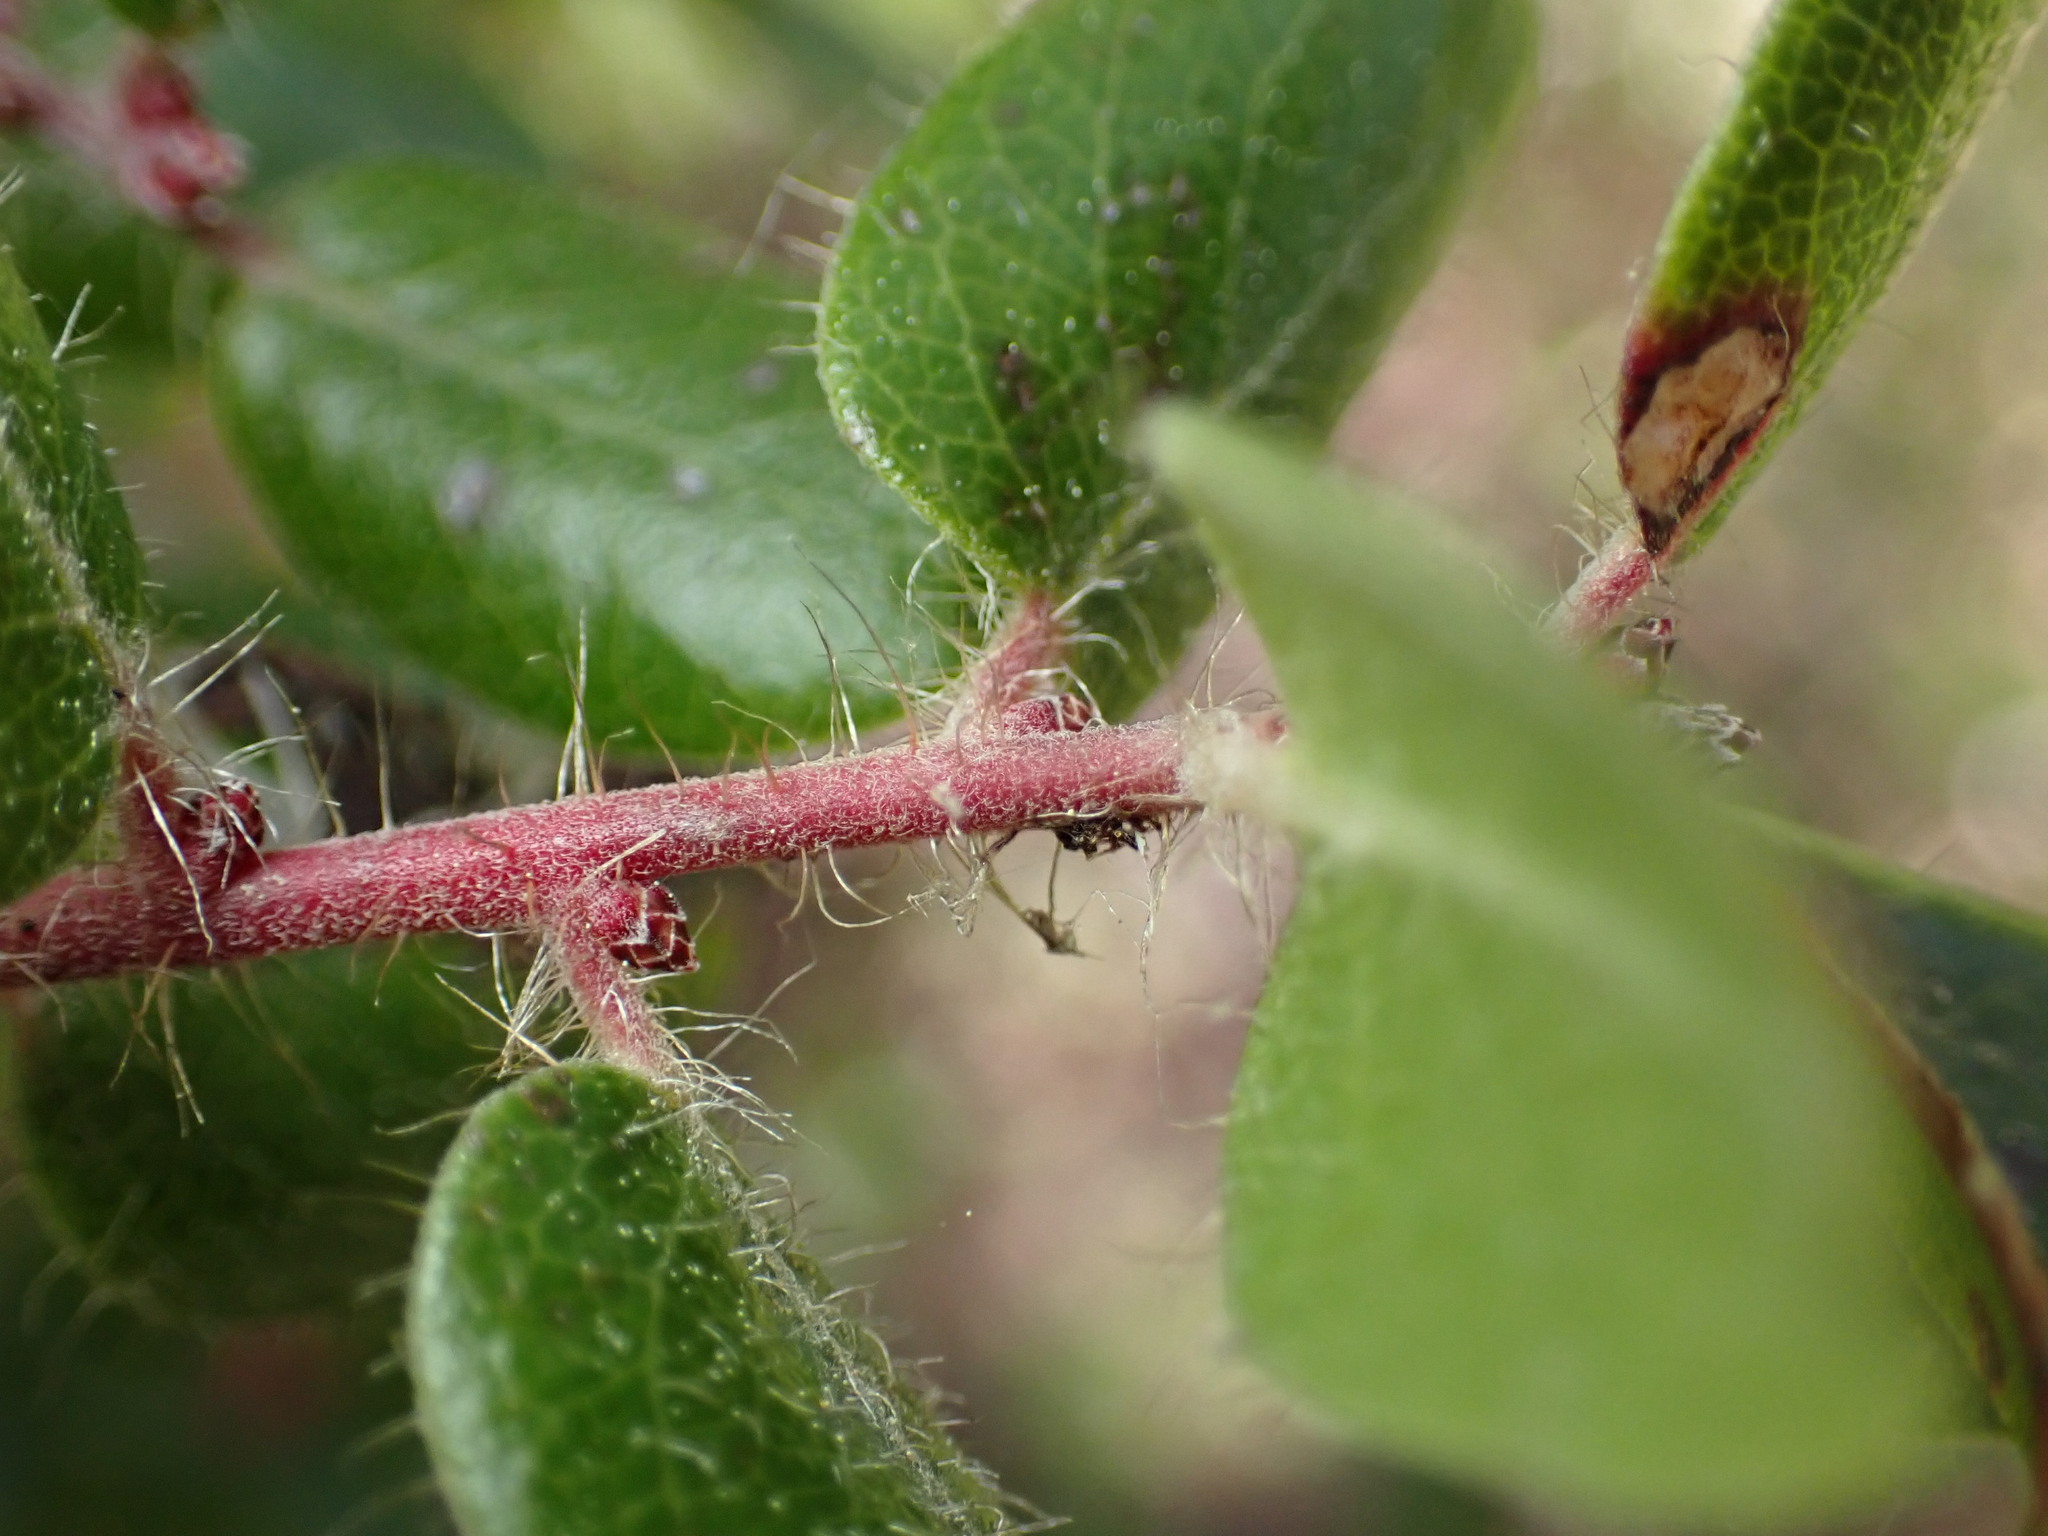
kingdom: Plantae
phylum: Tracheophyta
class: Magnoliopsida
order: Ericales
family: Ericaceae
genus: Arctostaphylos
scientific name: Arctostaphylos nummularia
